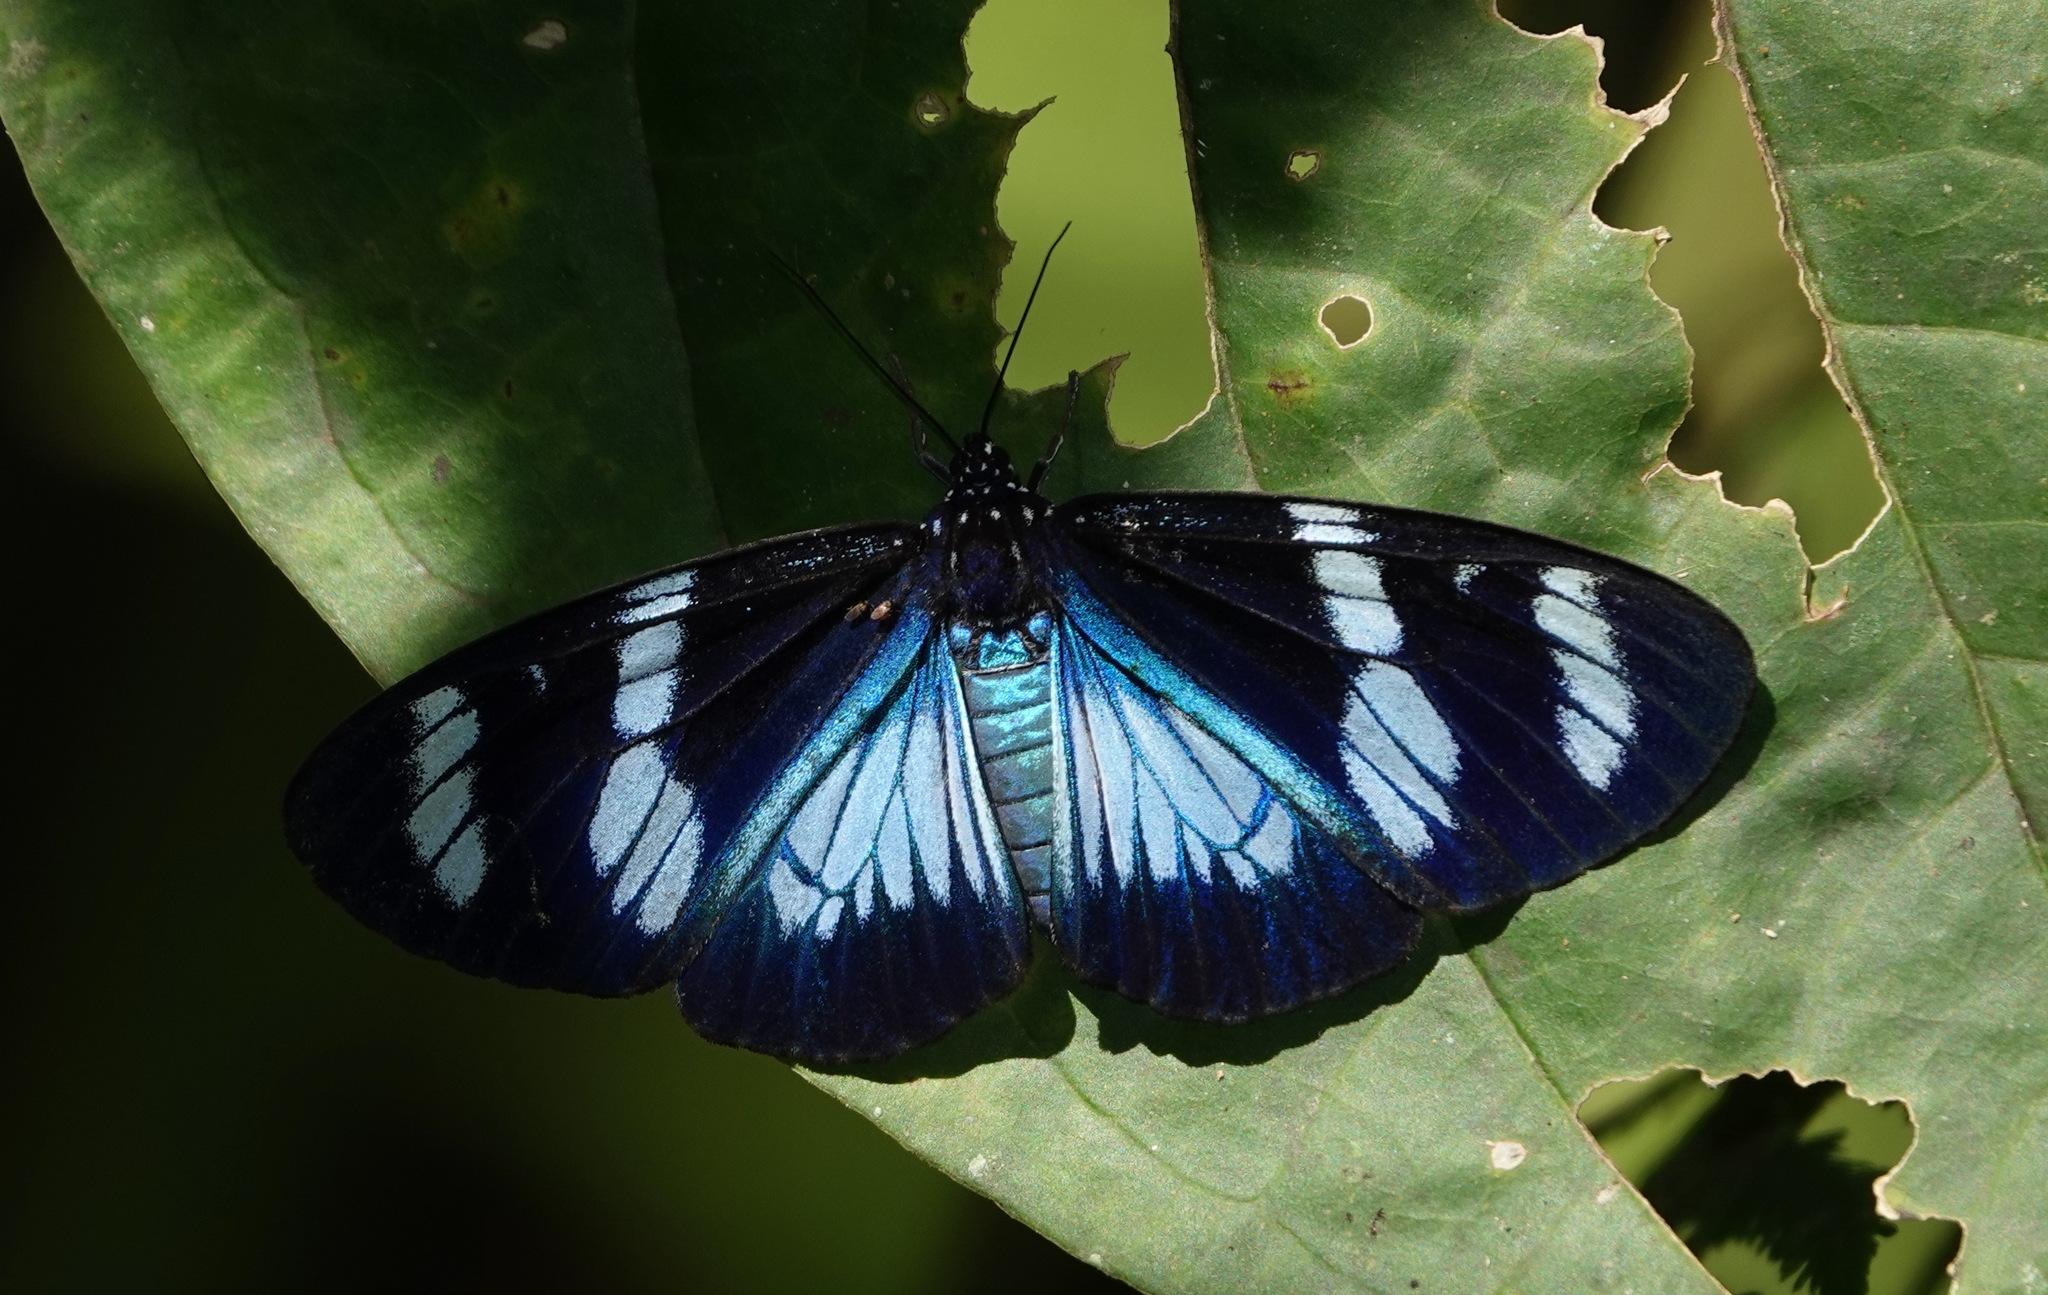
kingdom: Animalia
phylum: Arthropoda
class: Insecta
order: Lepidoptera
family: Erebidae
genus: Hypocrita
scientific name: Hypocrita plagifera
